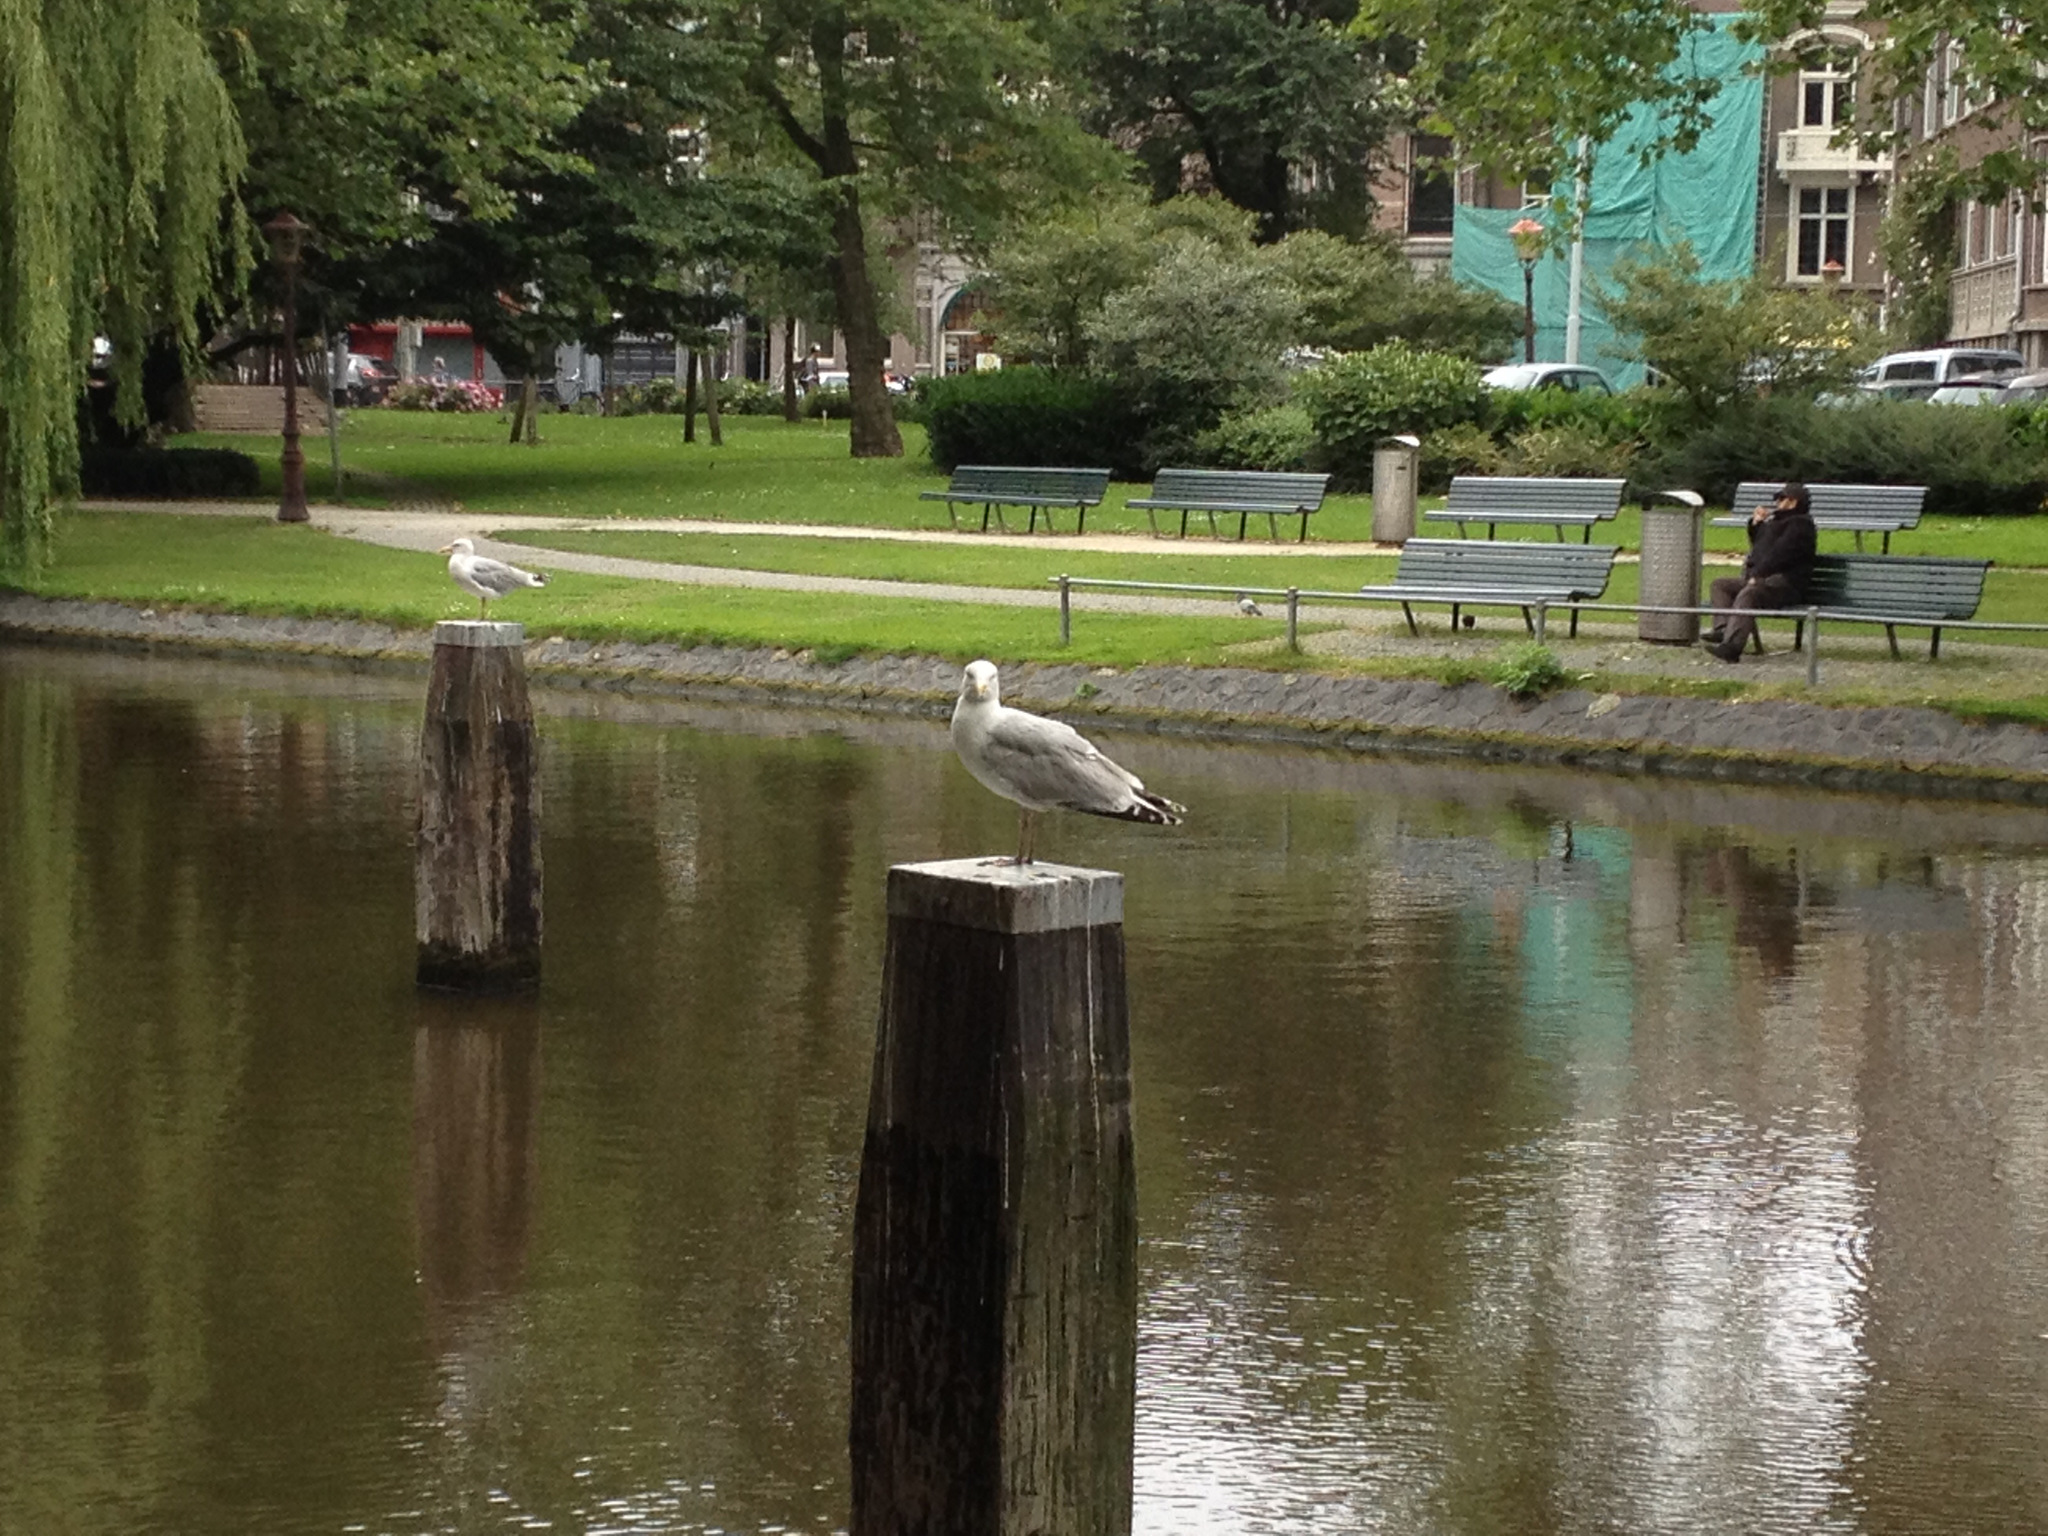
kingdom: Animalia
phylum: Chordata
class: Aves
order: Charadriiformes
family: Laridae
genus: Larus
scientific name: Larus argentatus
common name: Herring gull
